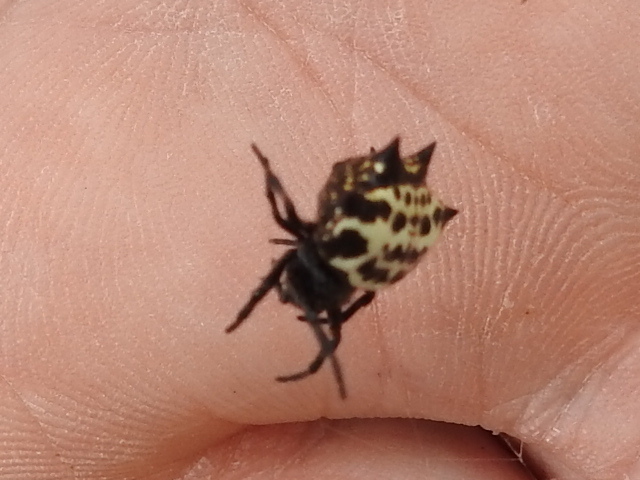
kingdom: Animalia
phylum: Arthropoda
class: Arachnida
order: Araneae
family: Araneidae
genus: Gasteracantha
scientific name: Gasteracantha cancriformis
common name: Orb weavers
